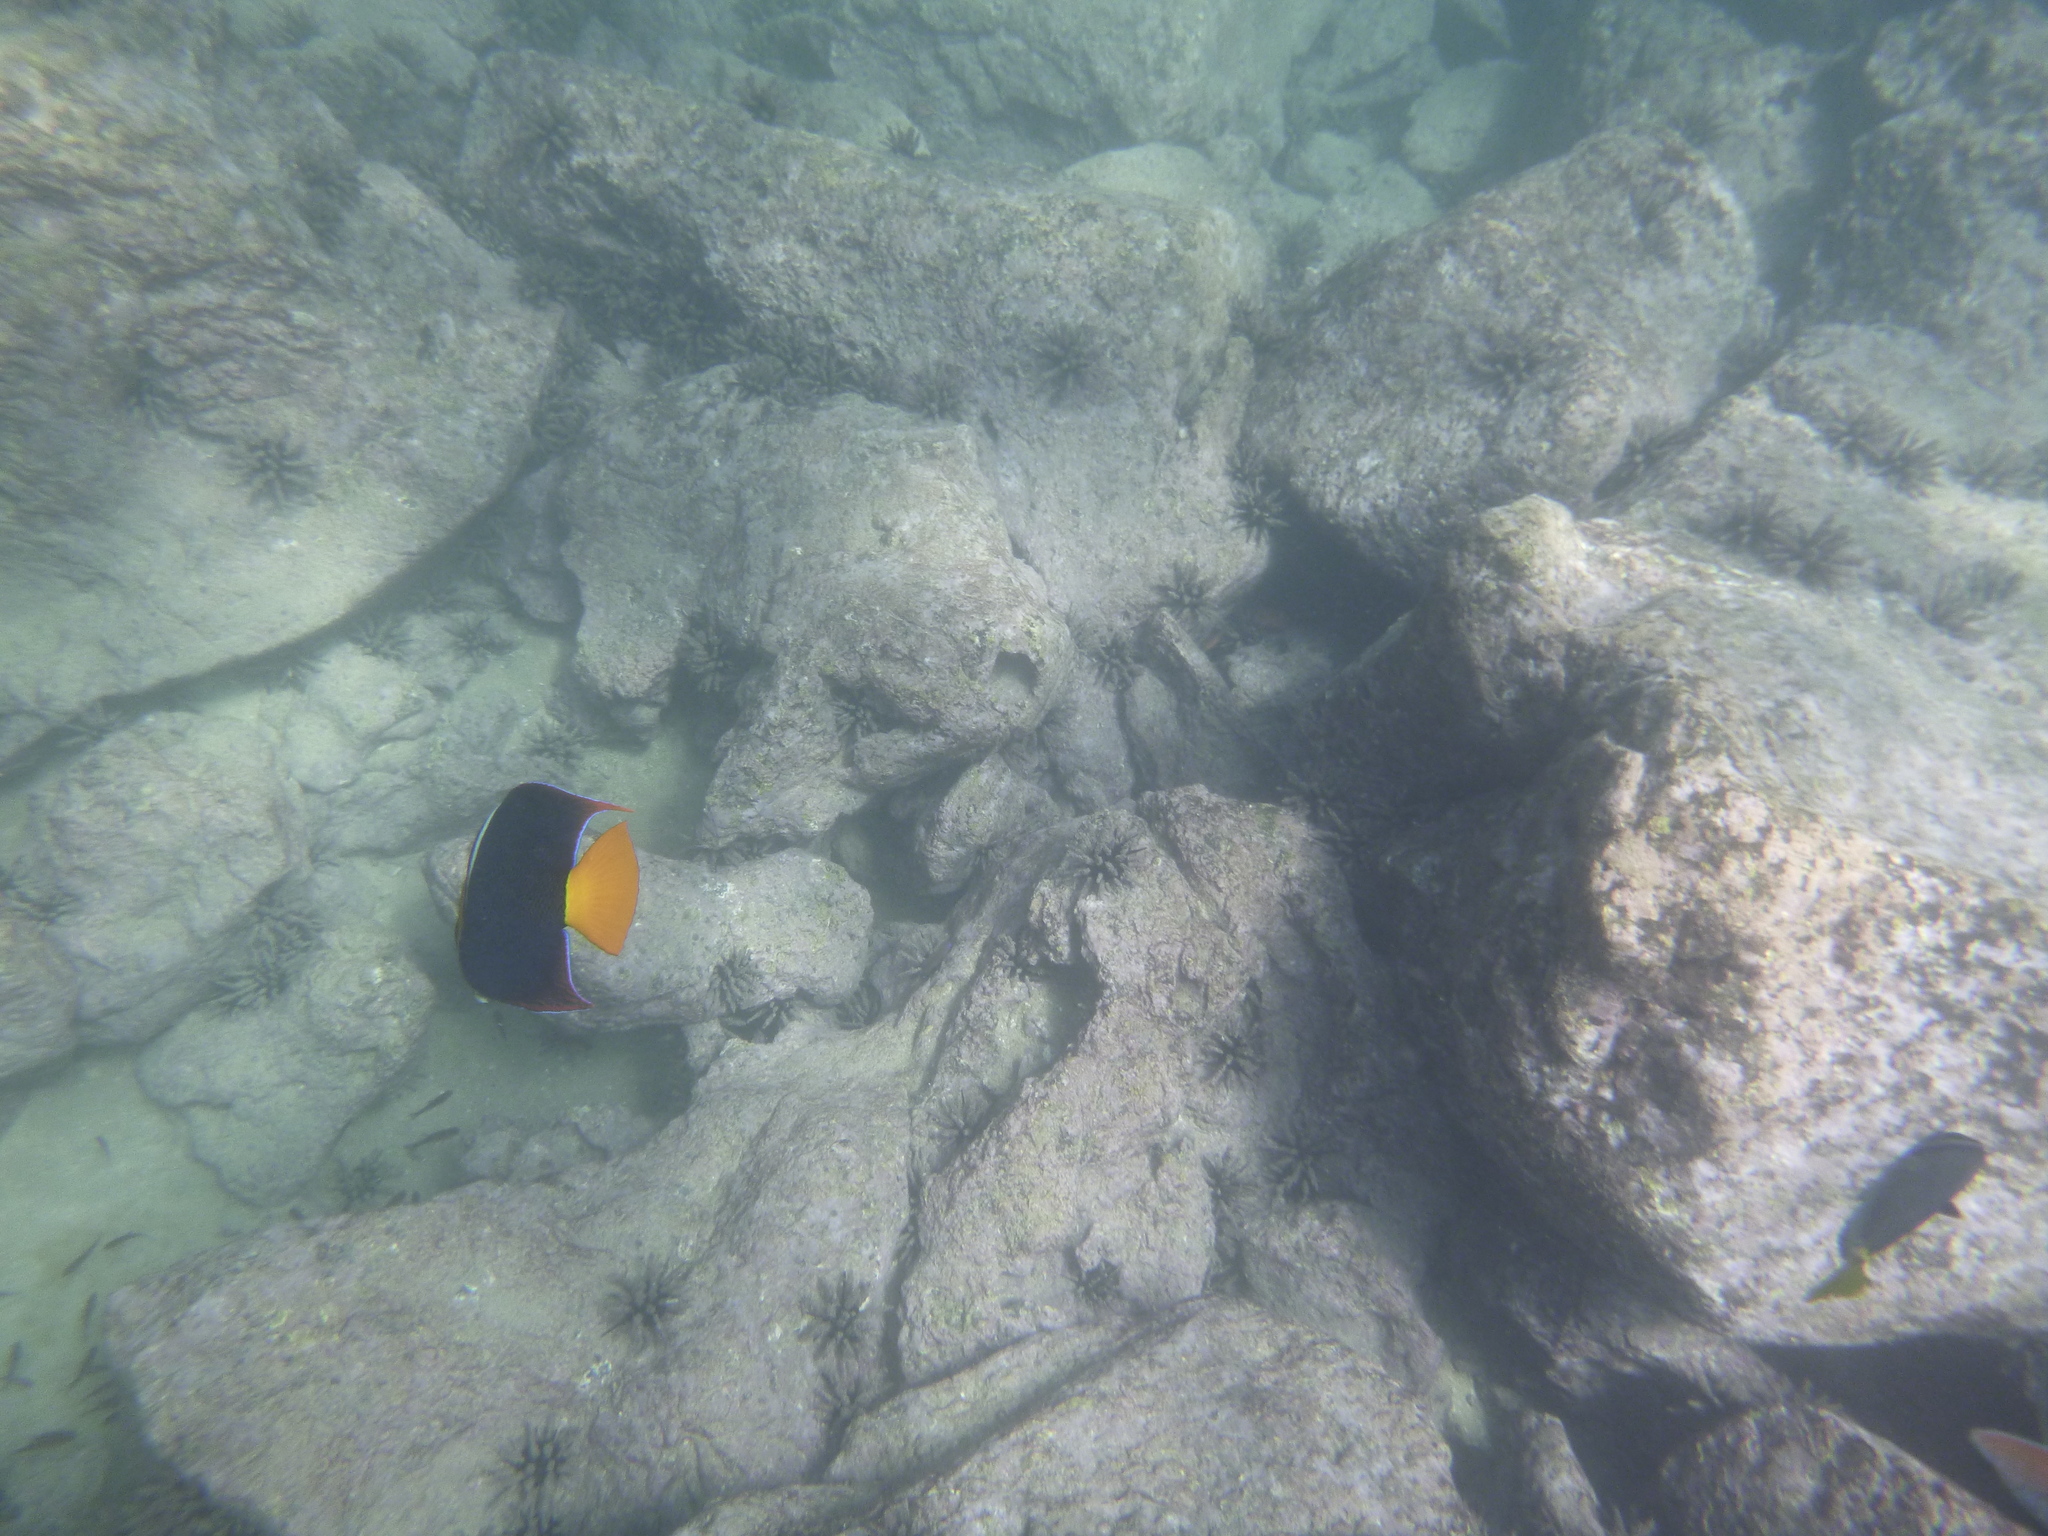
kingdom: Animalia
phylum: Chordata
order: Perciformes
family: Pomacanthidae
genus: Holacanthus
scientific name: Holacanthus passer
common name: King angelfish
